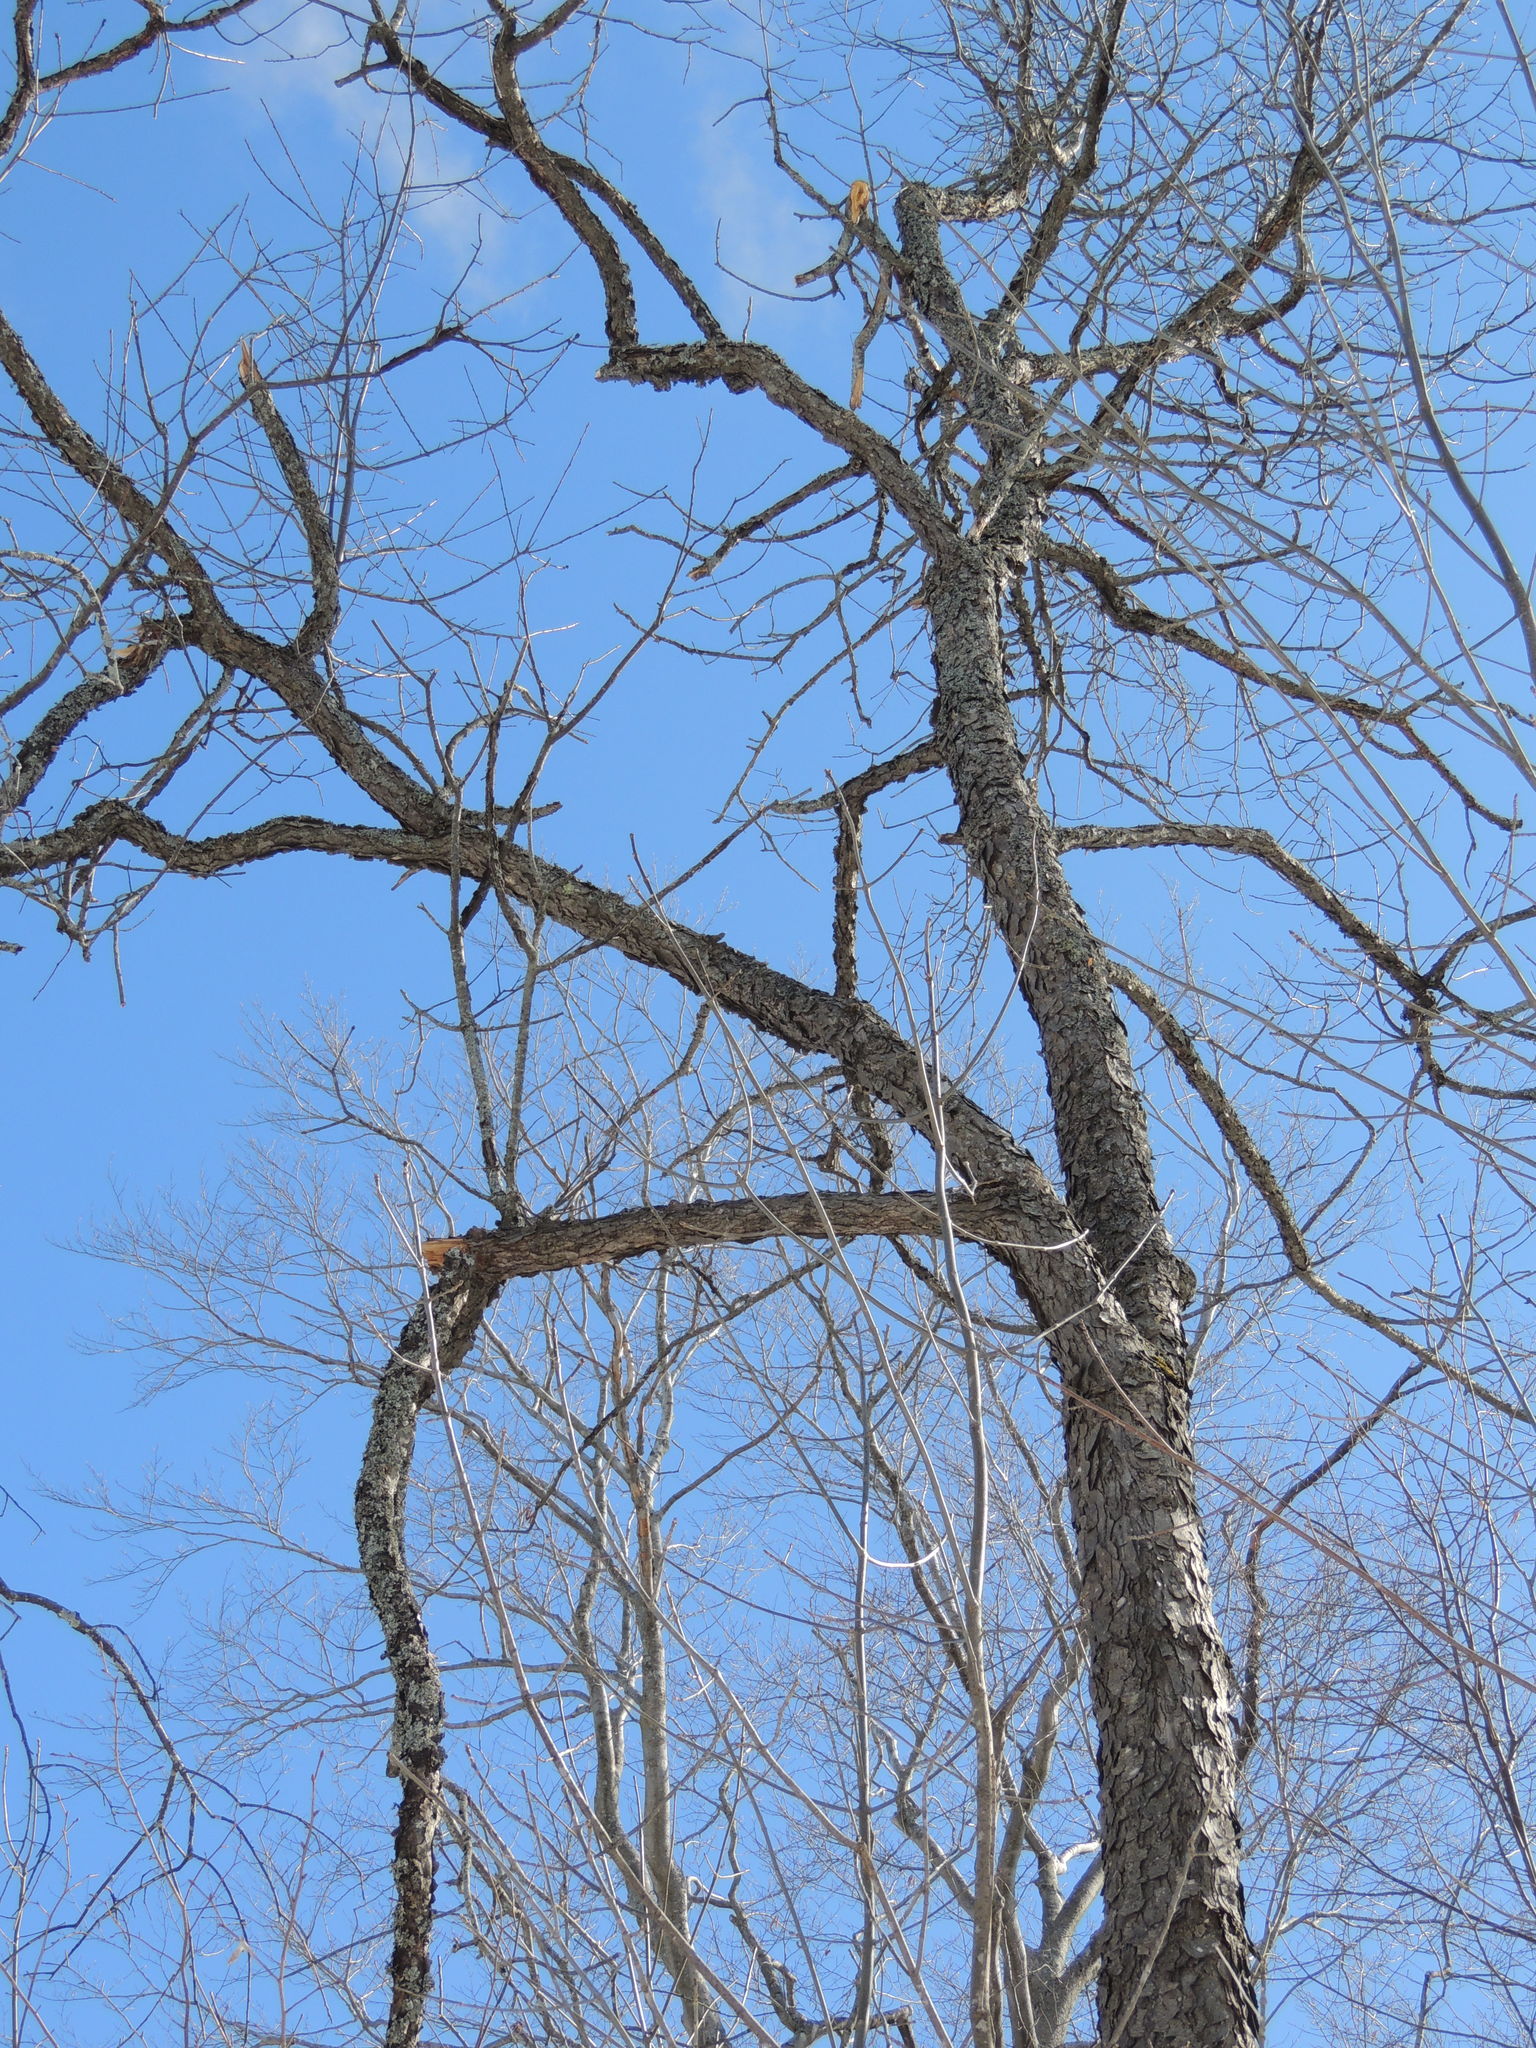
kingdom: Plantae
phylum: Tracheophyta
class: Magnoliopsida
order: Rosales
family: Rosaceae
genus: Prunus
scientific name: Prunus serotina
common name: Black cherry
